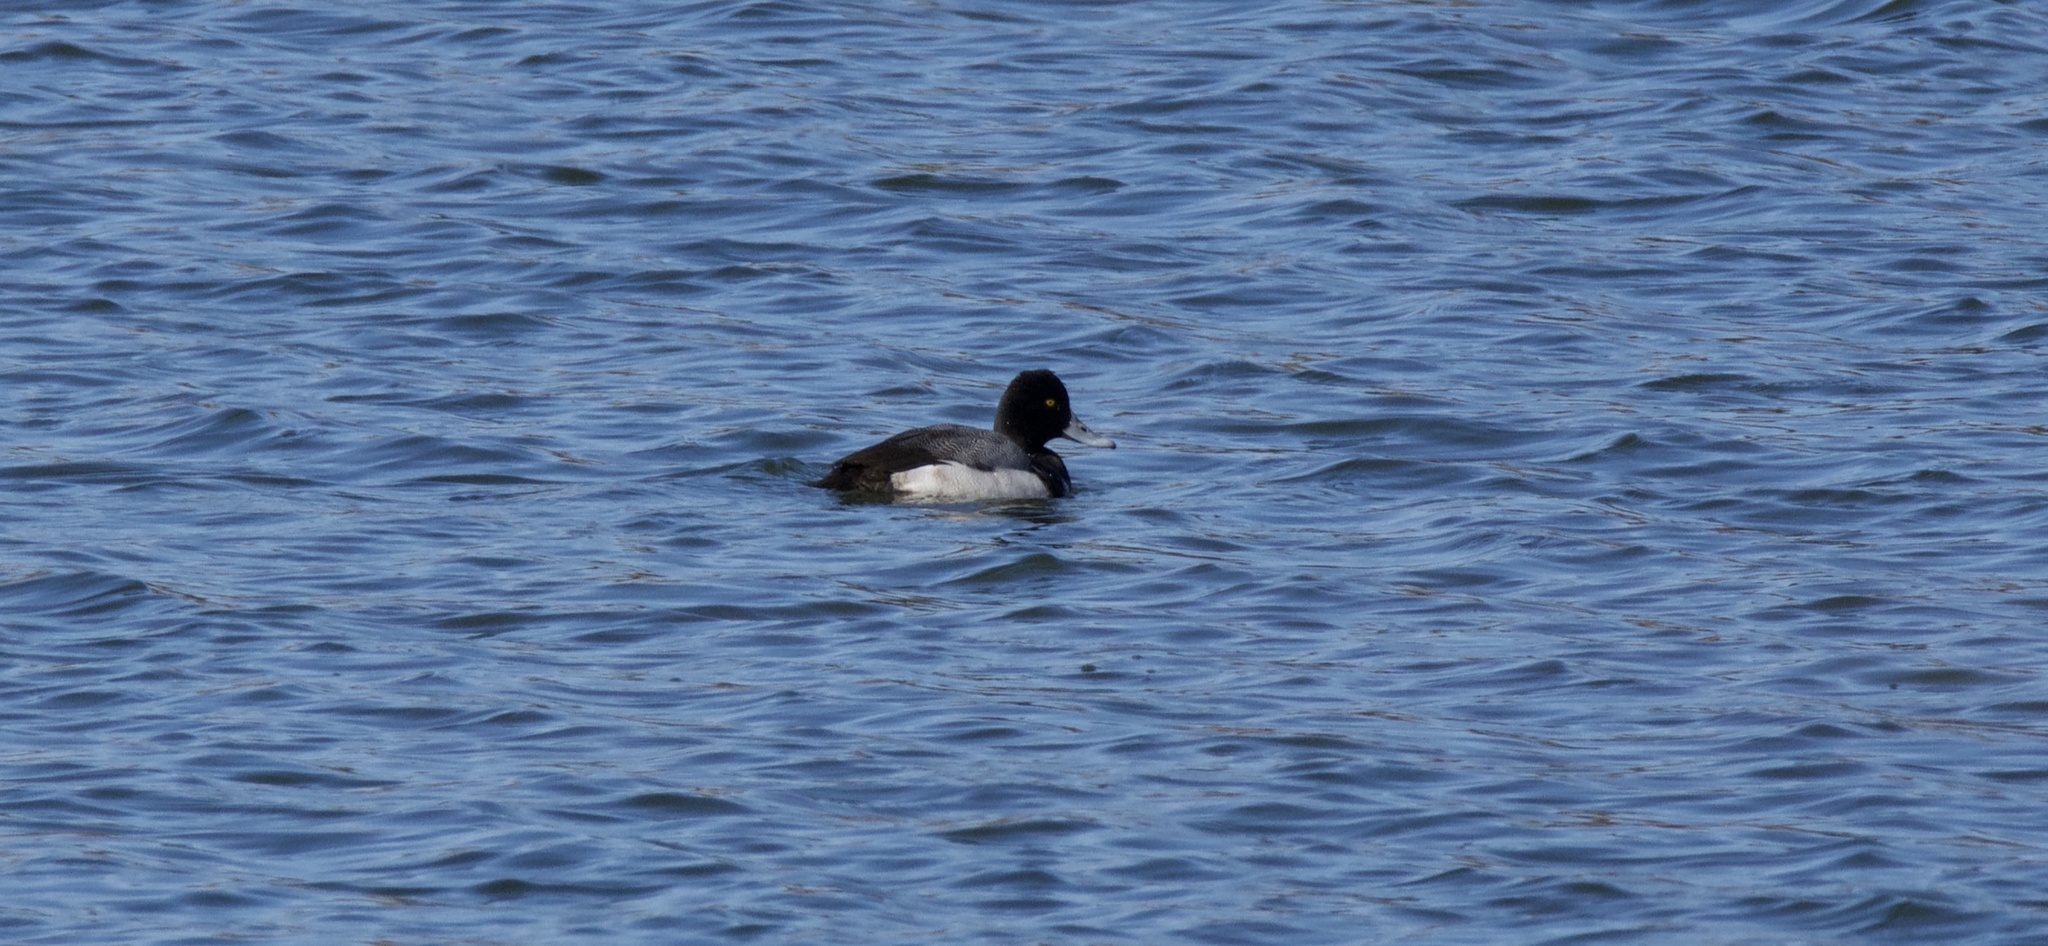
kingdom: Animalia
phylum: Chordata
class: Aves
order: Anseriformes
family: Anatidae
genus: Aythya
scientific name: Aythya affinis
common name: Lesser scaup
